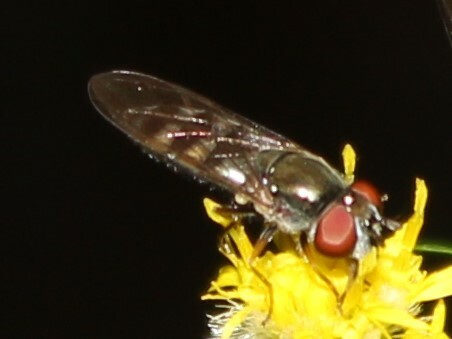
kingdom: Animalia
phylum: Arthropoda
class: Insecta
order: Diptera
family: Syrphidae
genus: Platycheirus
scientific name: Platycheirus
